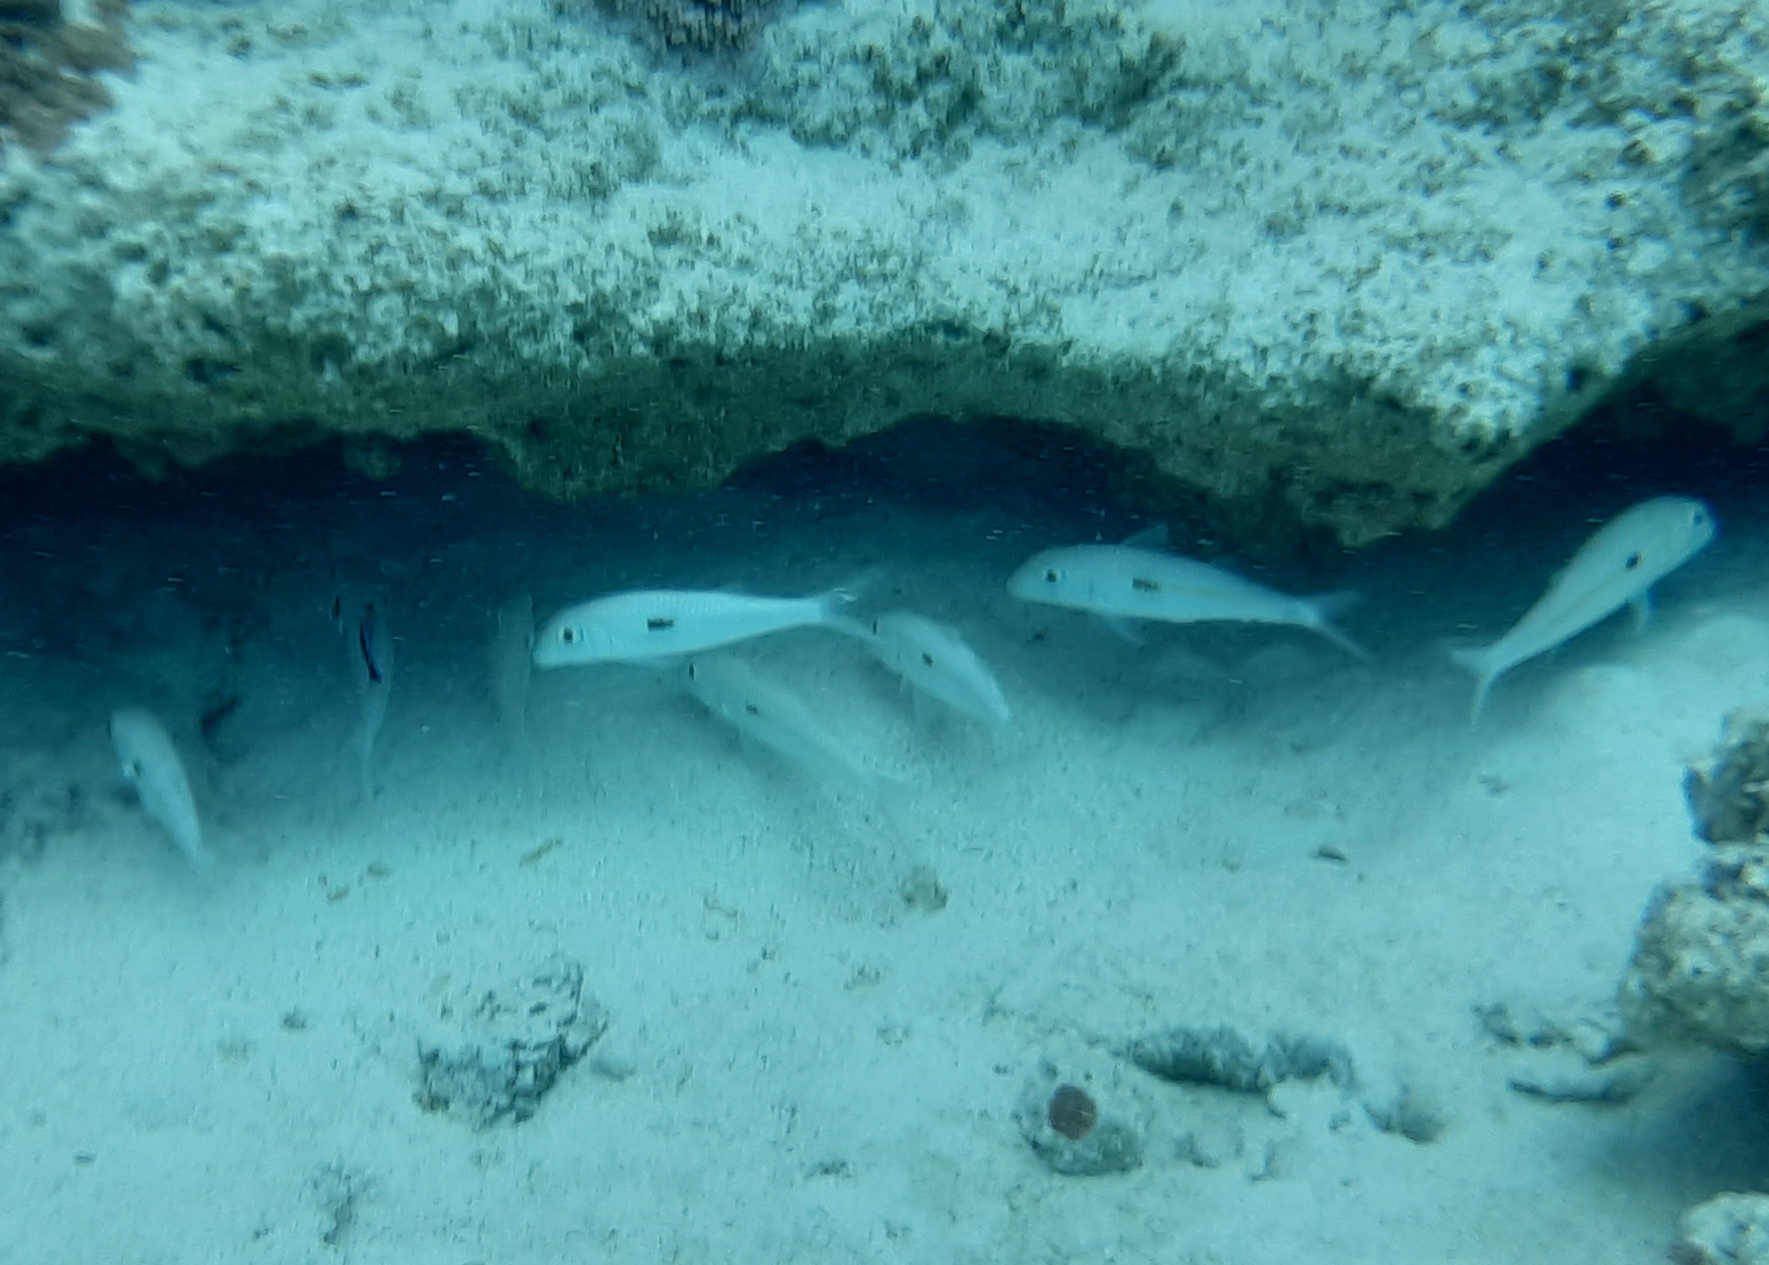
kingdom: Animalia
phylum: Chordata
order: Perciformes
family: Mullidae
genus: Mulloidichthys
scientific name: Mulloidichthys flavolineatus
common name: Yellowstripe goatfish
